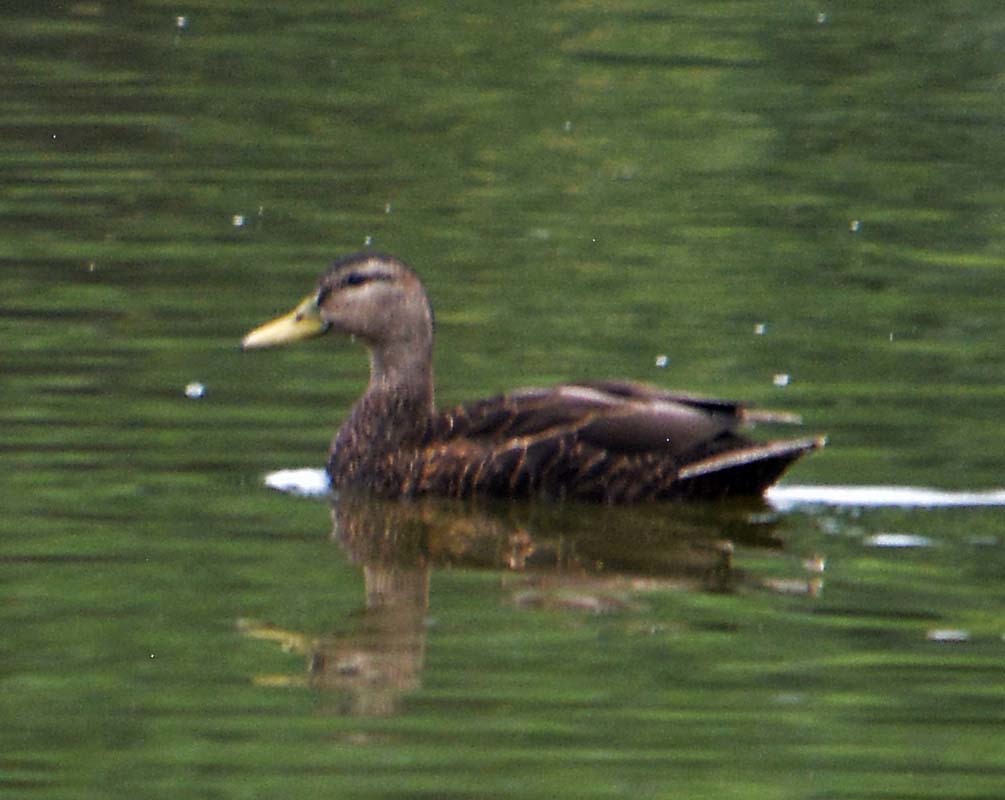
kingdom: Animalia
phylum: Chordata
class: Aves
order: Anseriformes
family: Anatidae
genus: Anas
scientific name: Anas diazi
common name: Mexican duck
